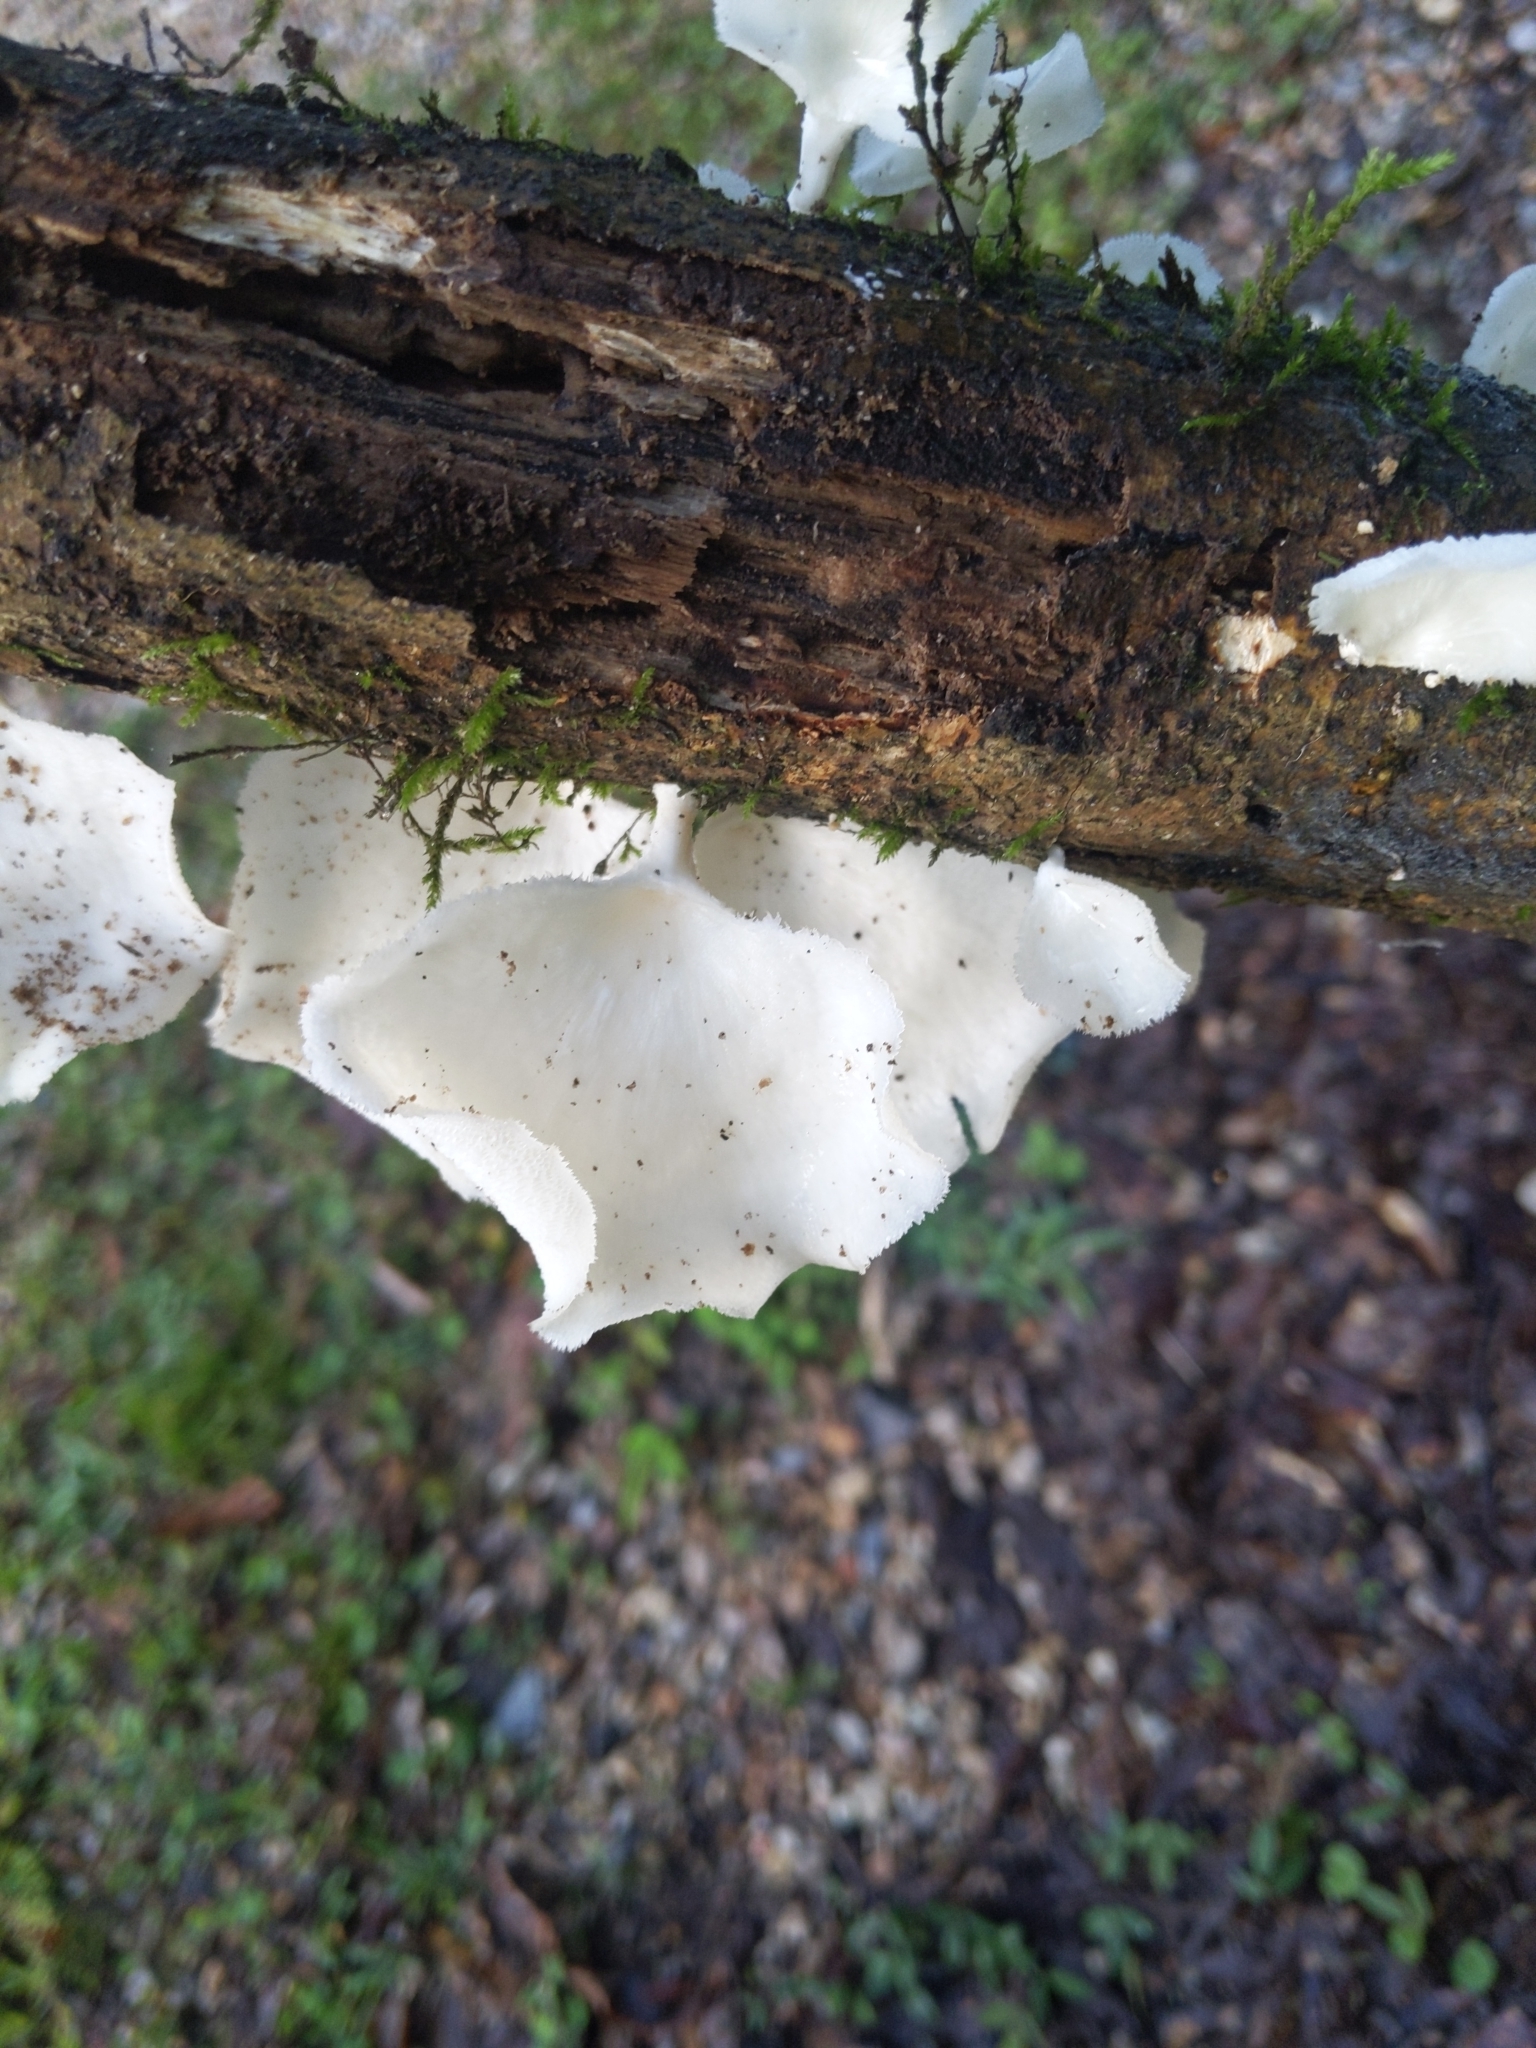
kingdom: Fungi
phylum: Basidiomycota
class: Agaricomycetes
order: Polyporales
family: Polyporaceae
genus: Favolus
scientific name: Favolus tenuiculus
